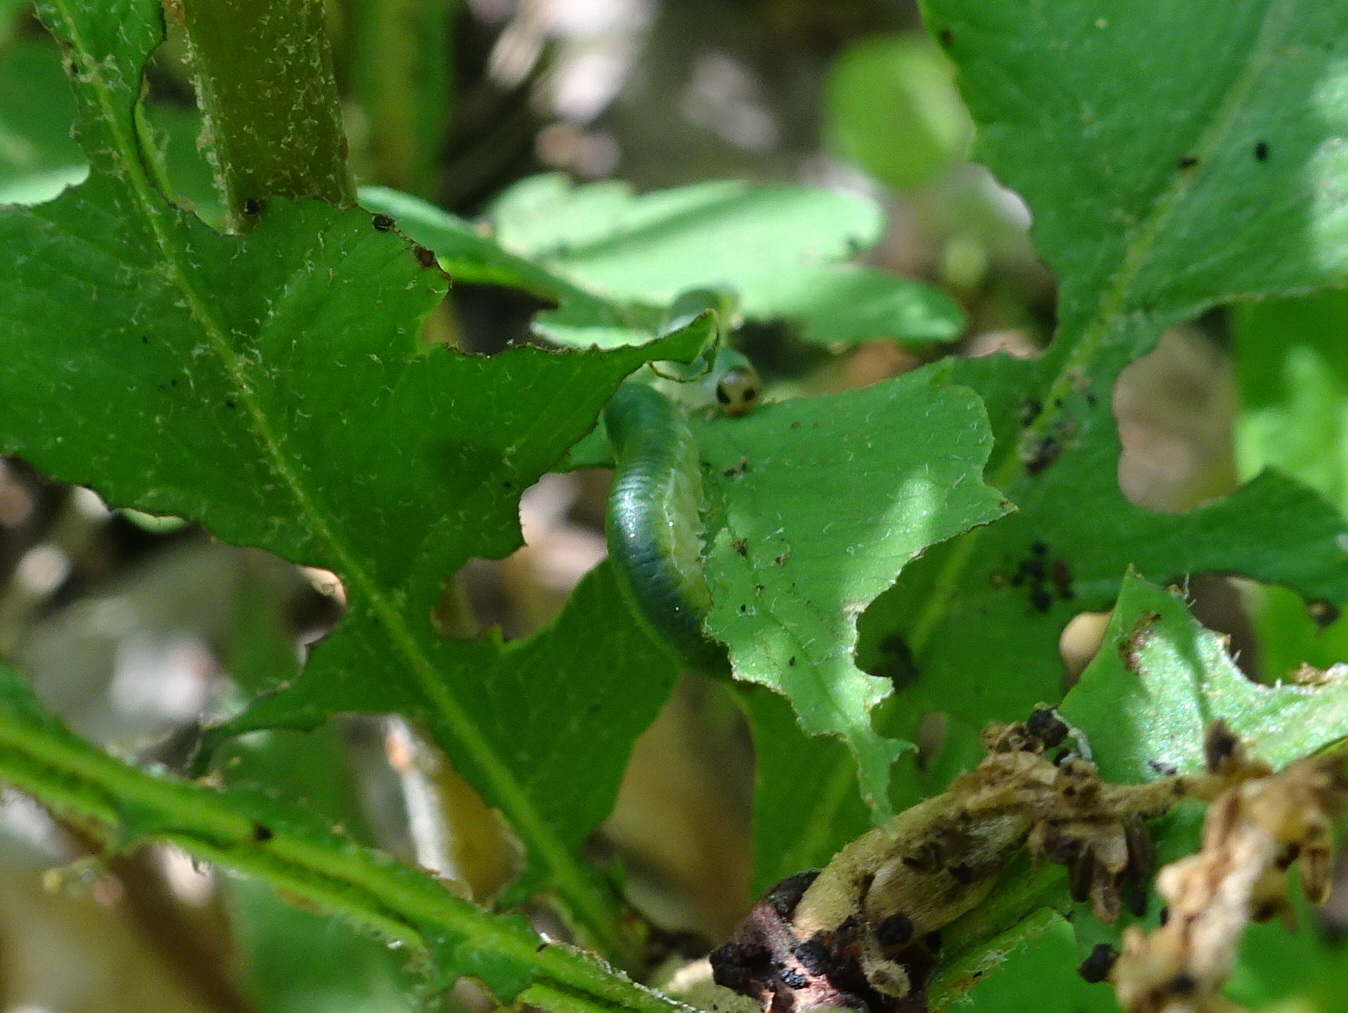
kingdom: Animalia
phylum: Arthropoda
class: Insecta
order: Hymenoptera
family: Tenthredinidae
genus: Thrinax
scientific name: Thrinax dubitata
